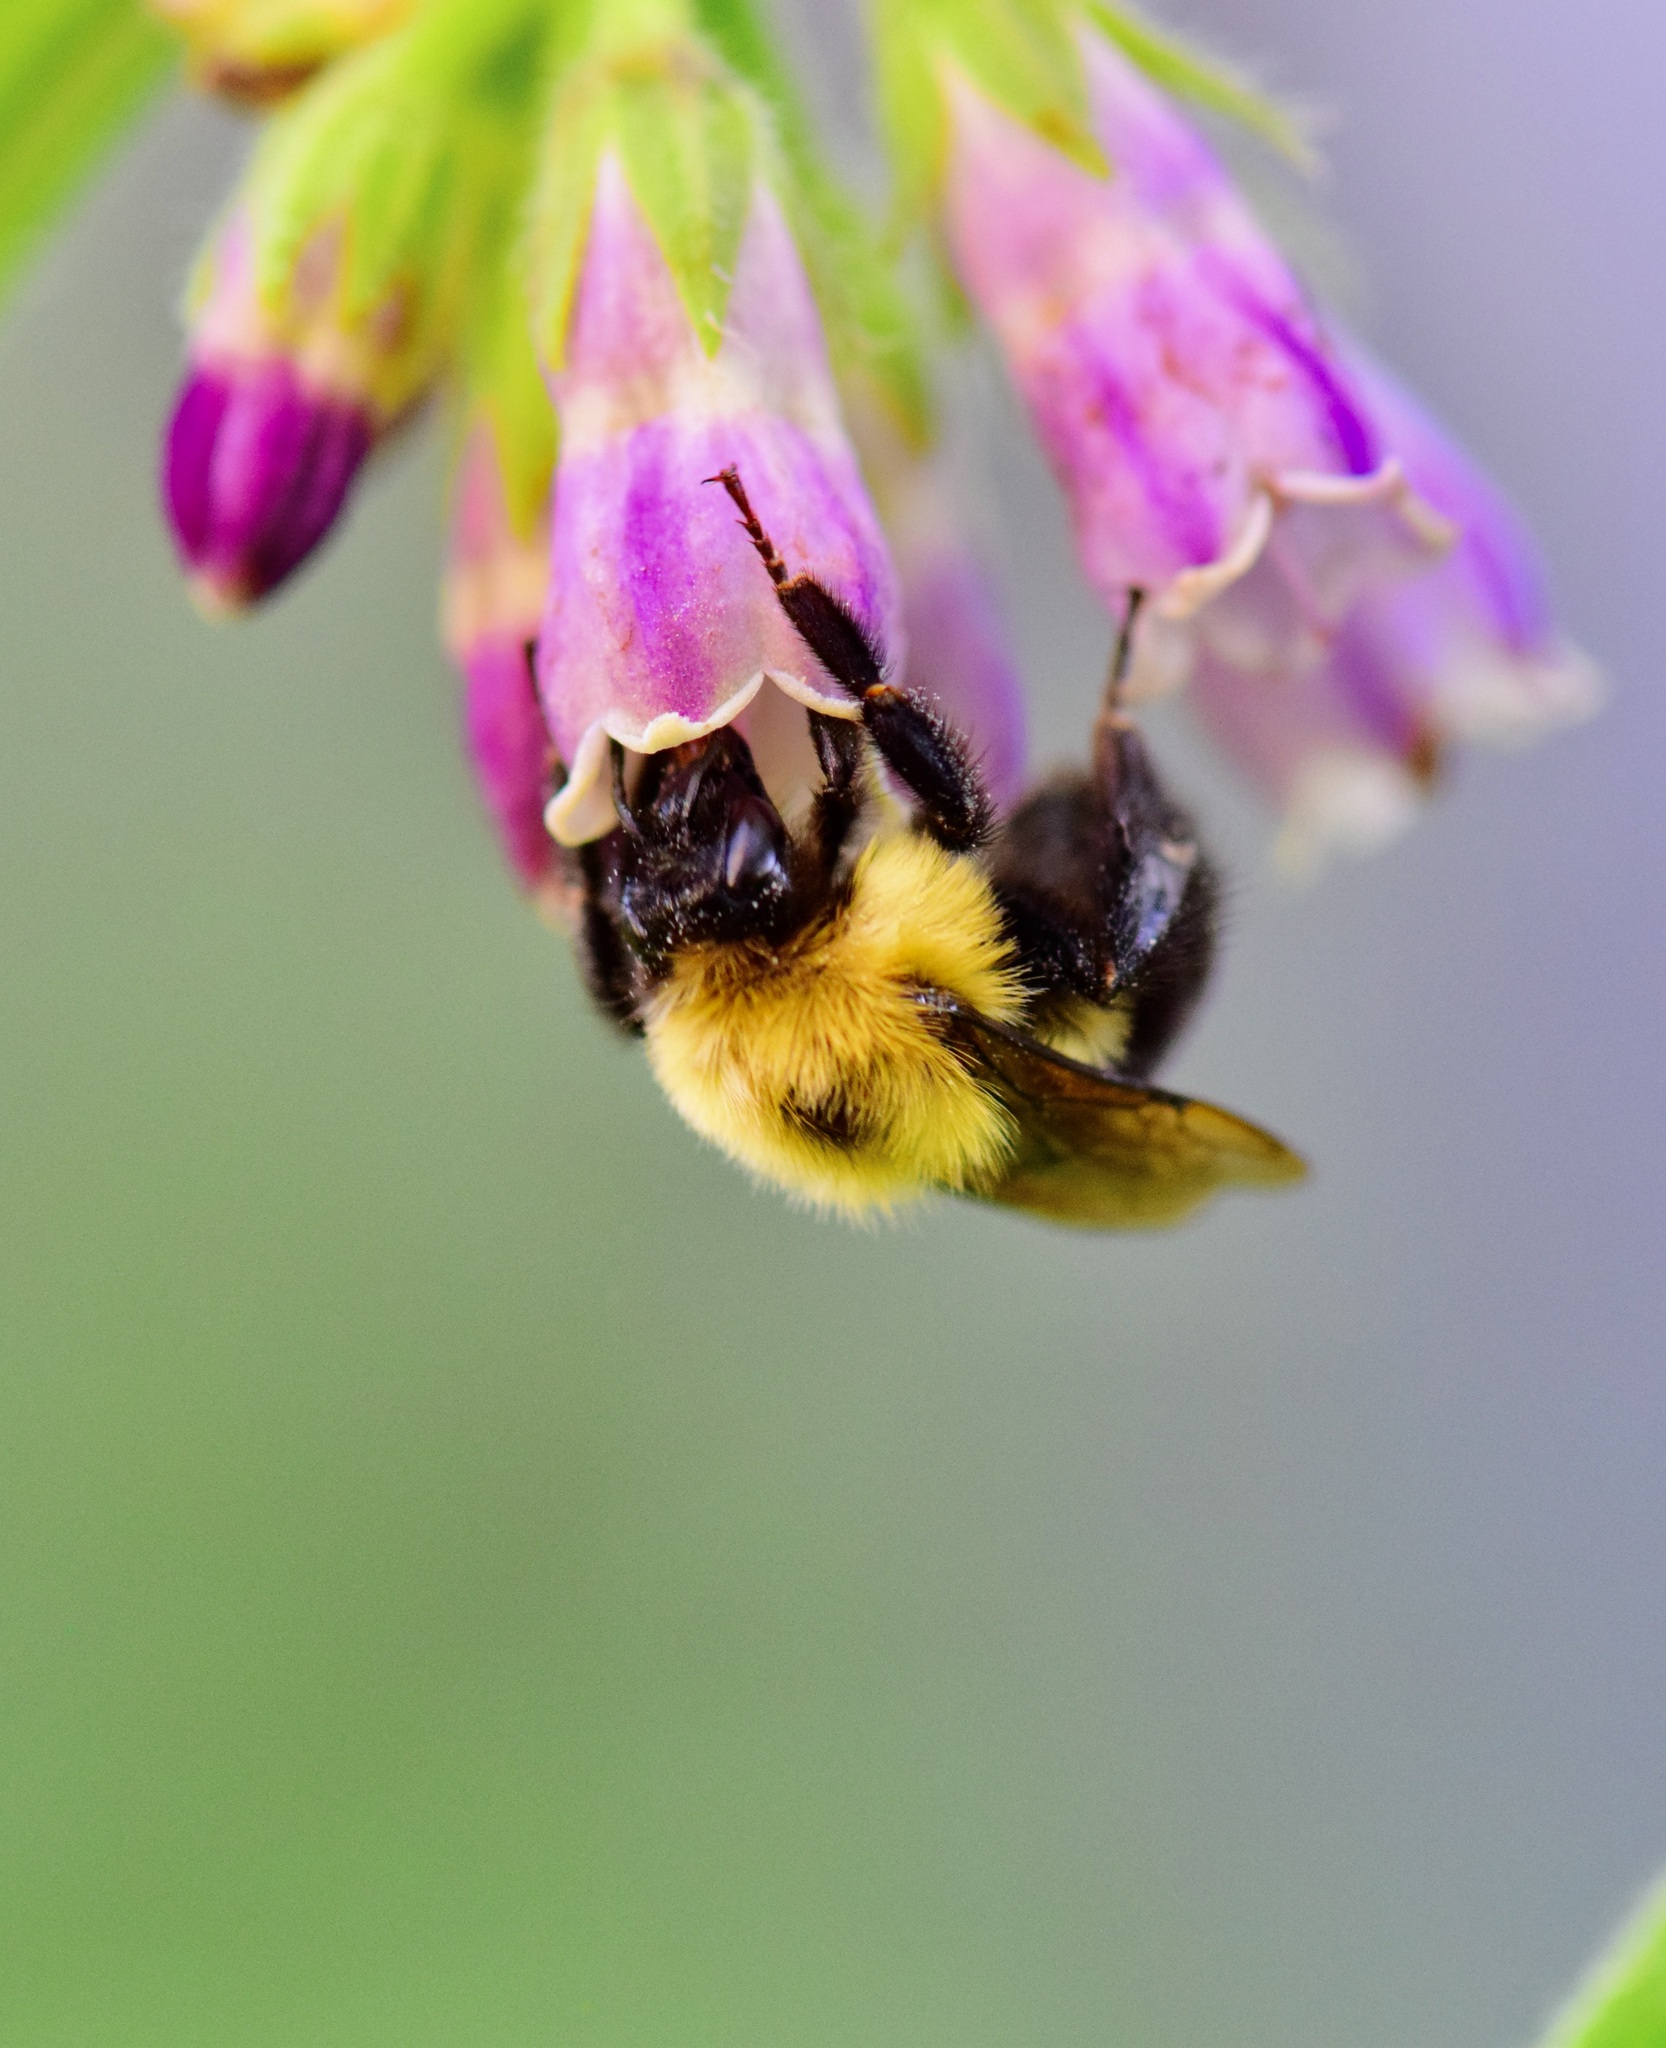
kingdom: Animalia
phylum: Arthropoda
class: Insecta
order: Hymenoptera
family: Apidae
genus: Bombus
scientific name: Bombus bimaculatus
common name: Two-spotted bumble bee
